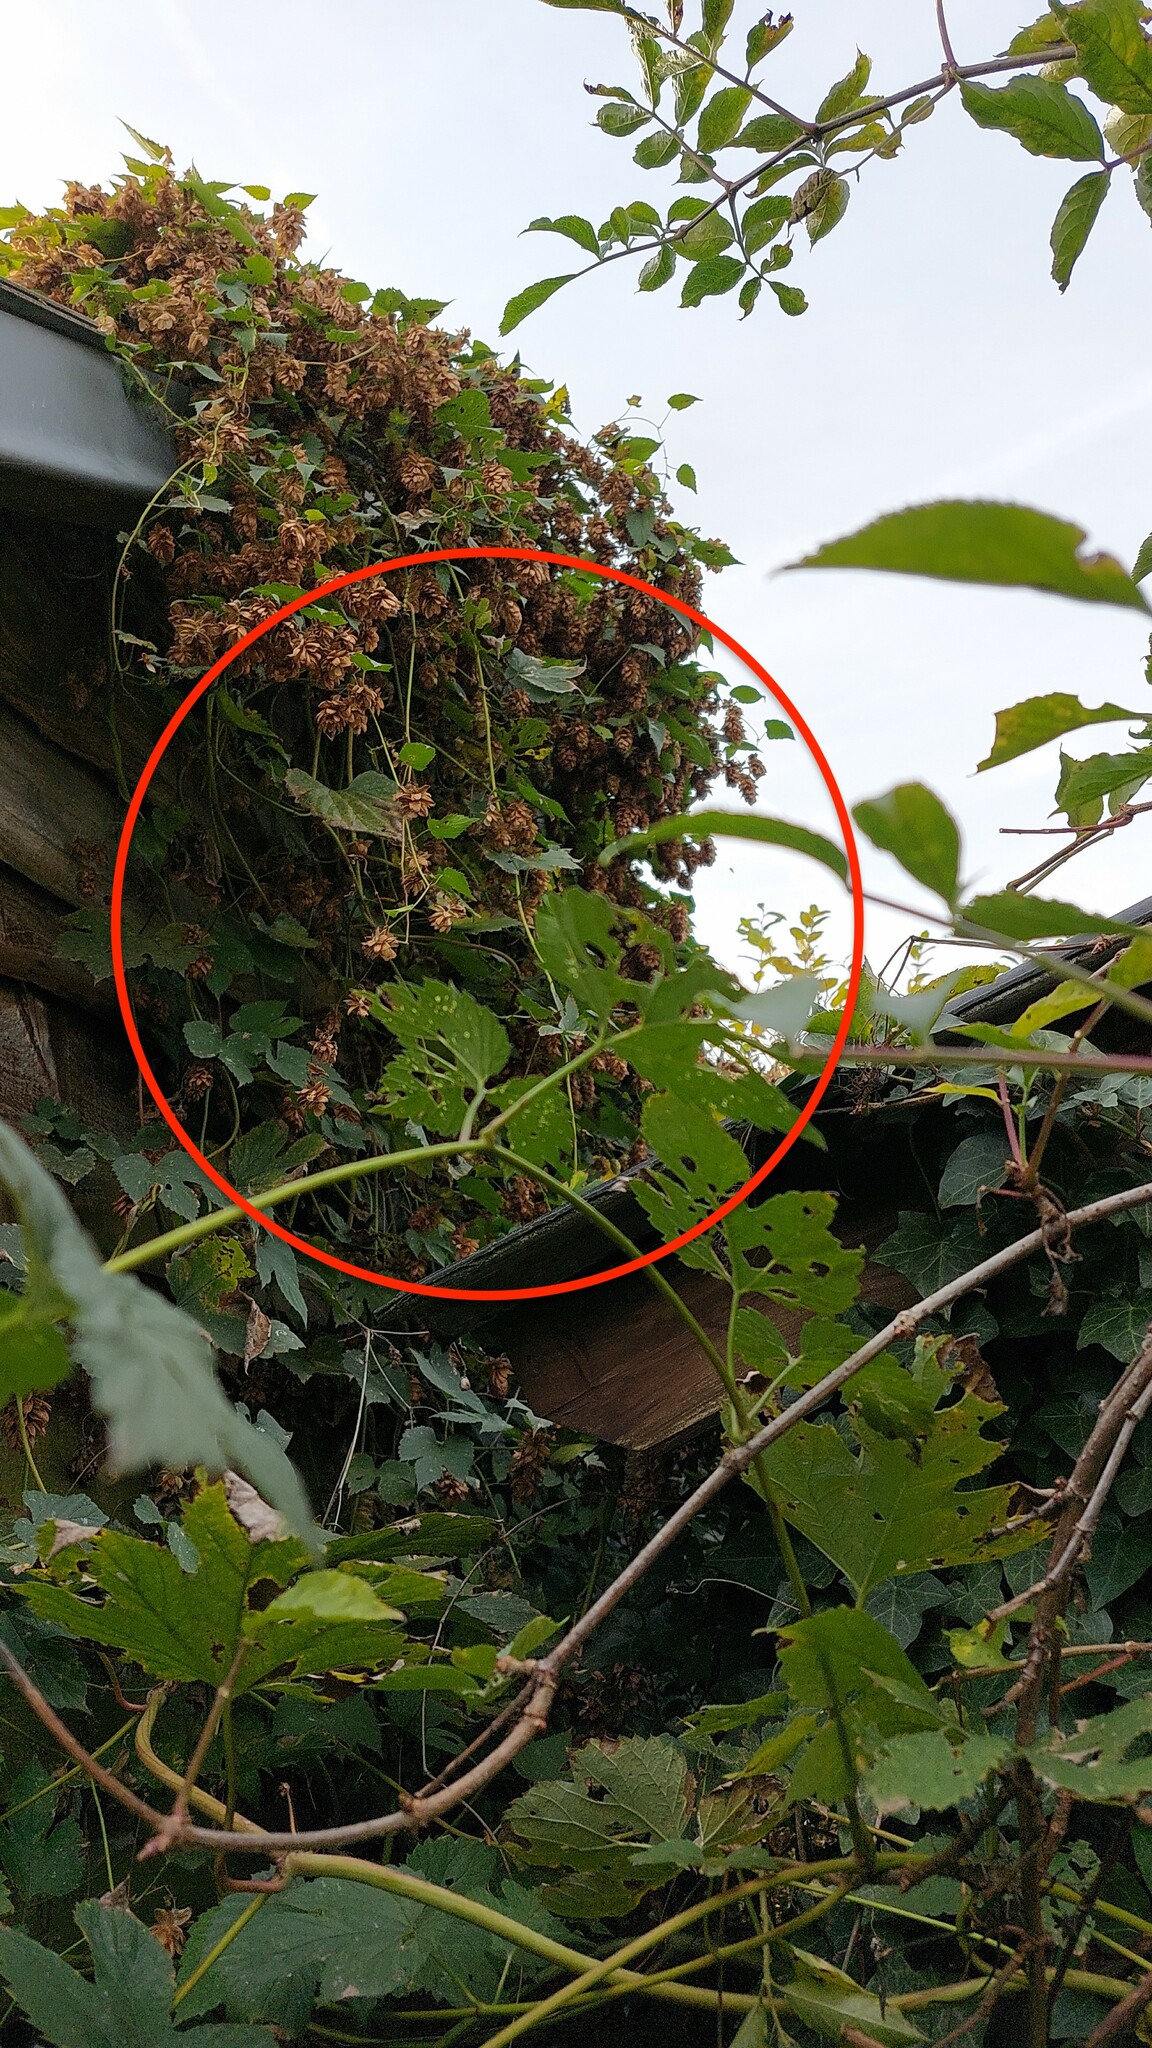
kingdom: Animalia
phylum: Arthropoda
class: Insecta
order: Hymenoptera
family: Vespidae
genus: Vespa
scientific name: Vespa velutina
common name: Asian hornet
